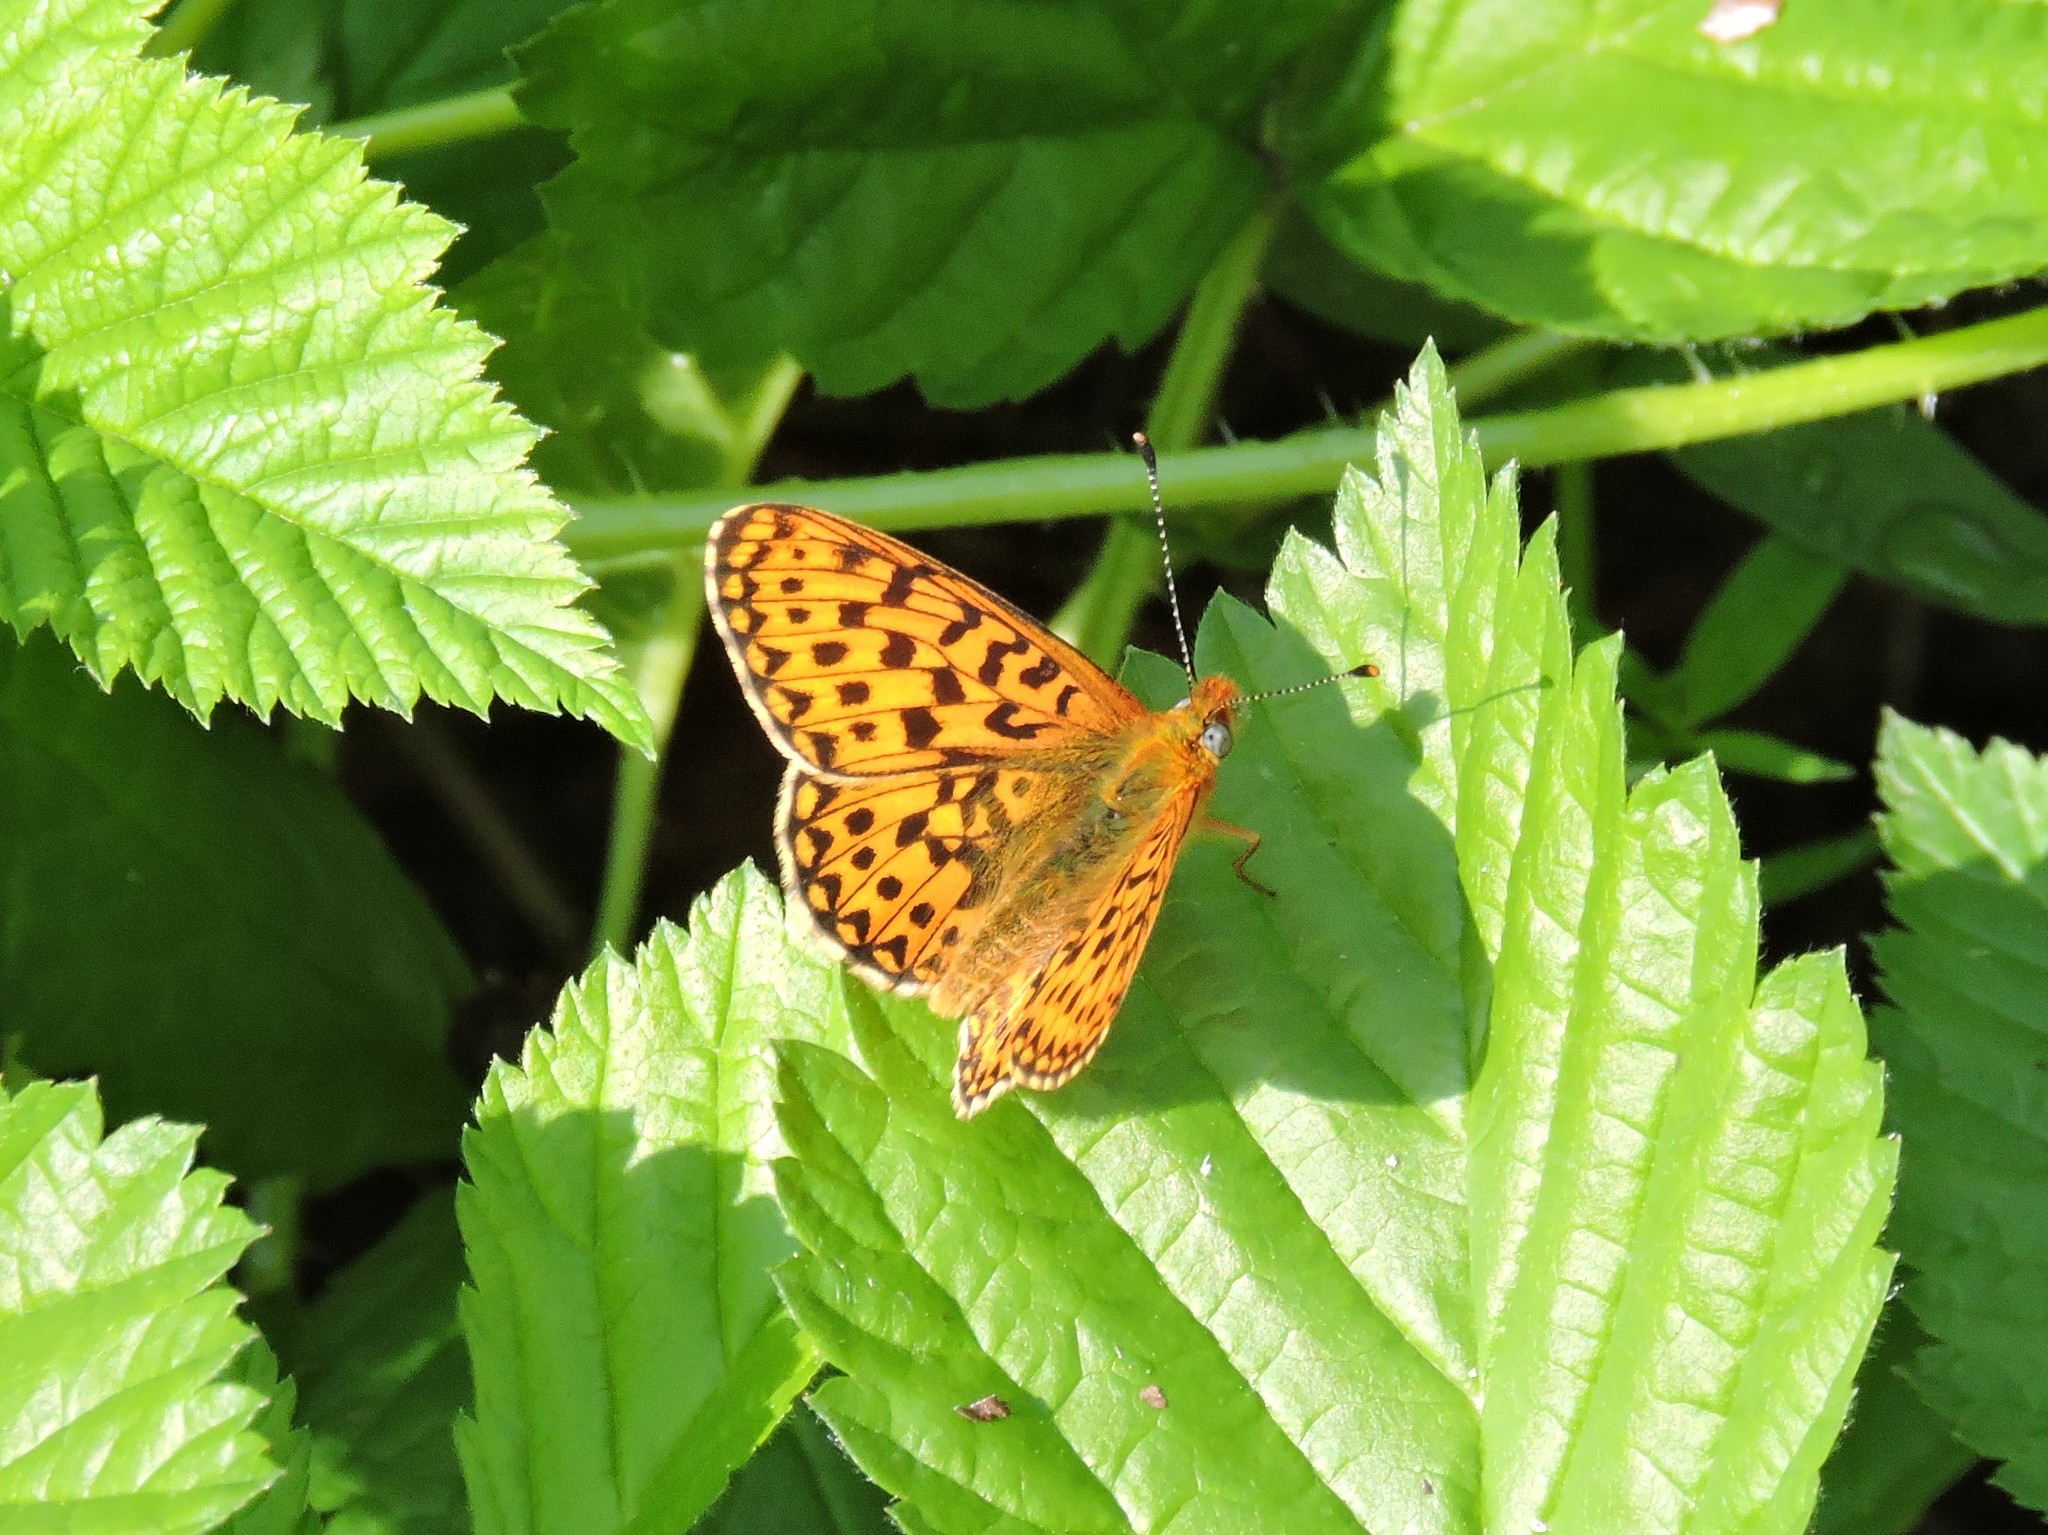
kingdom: Animalia
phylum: Arthropoda
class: Insecta
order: Lepidoptera
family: Nymphalidae
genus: Clossiana
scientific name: Clossiana euphrosyne
